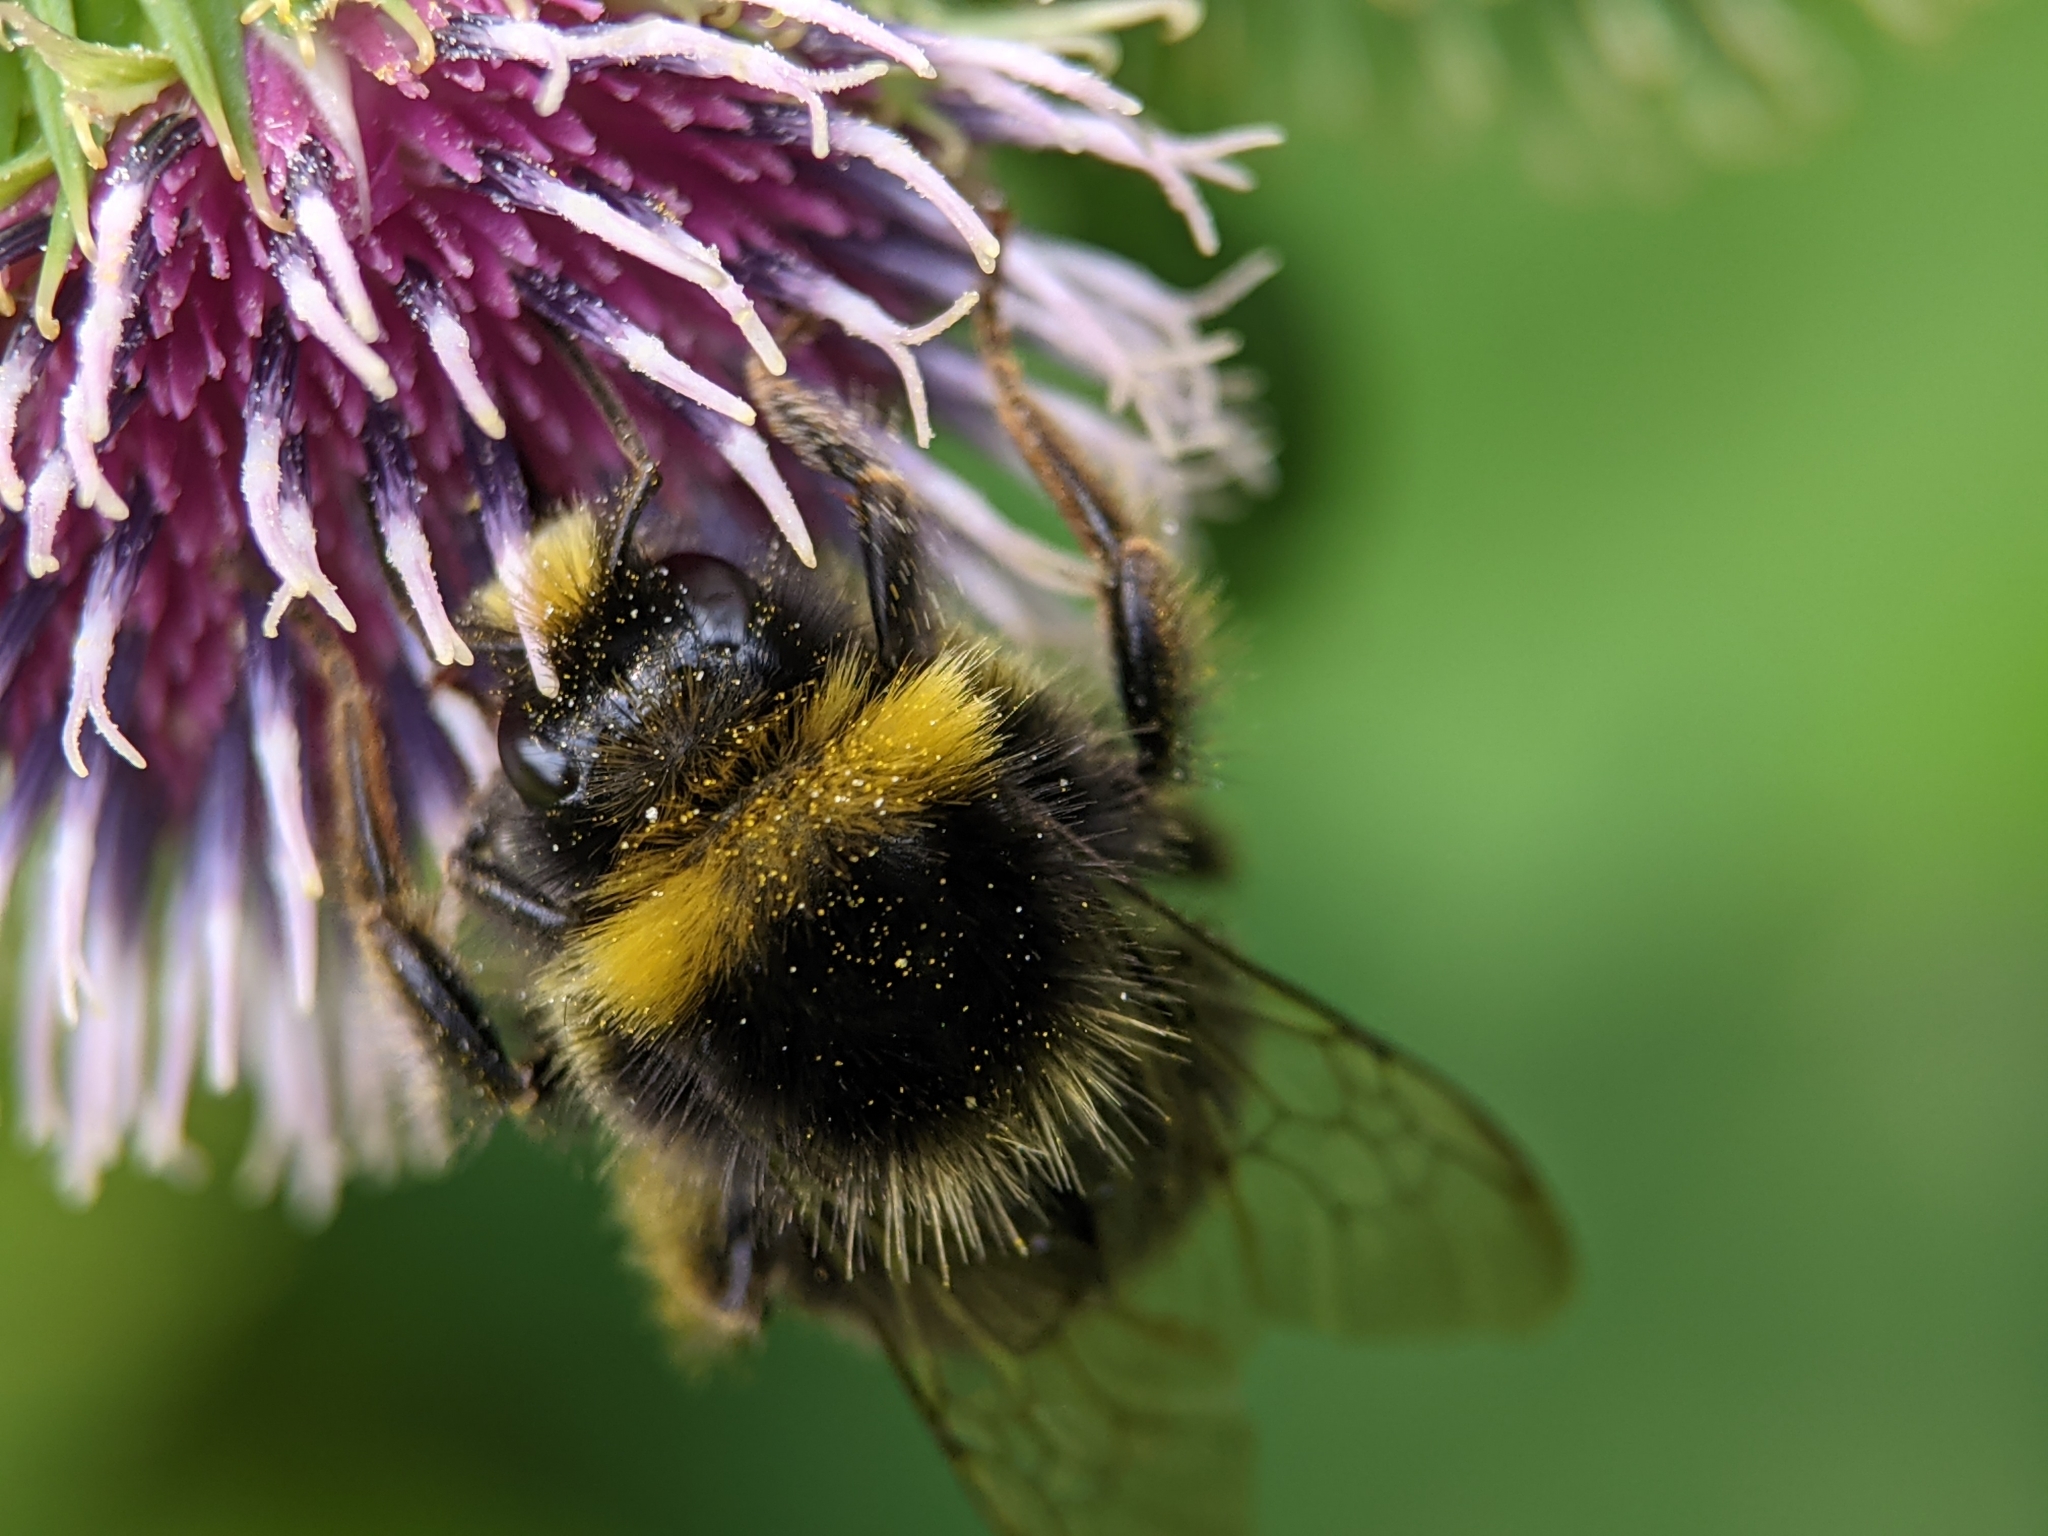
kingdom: Animalia
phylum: Arthropoda
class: Insecta
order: Hymenoptera
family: Apidae
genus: Bombus
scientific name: Bombus lapidarius
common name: Large red-tailed humble-bee
